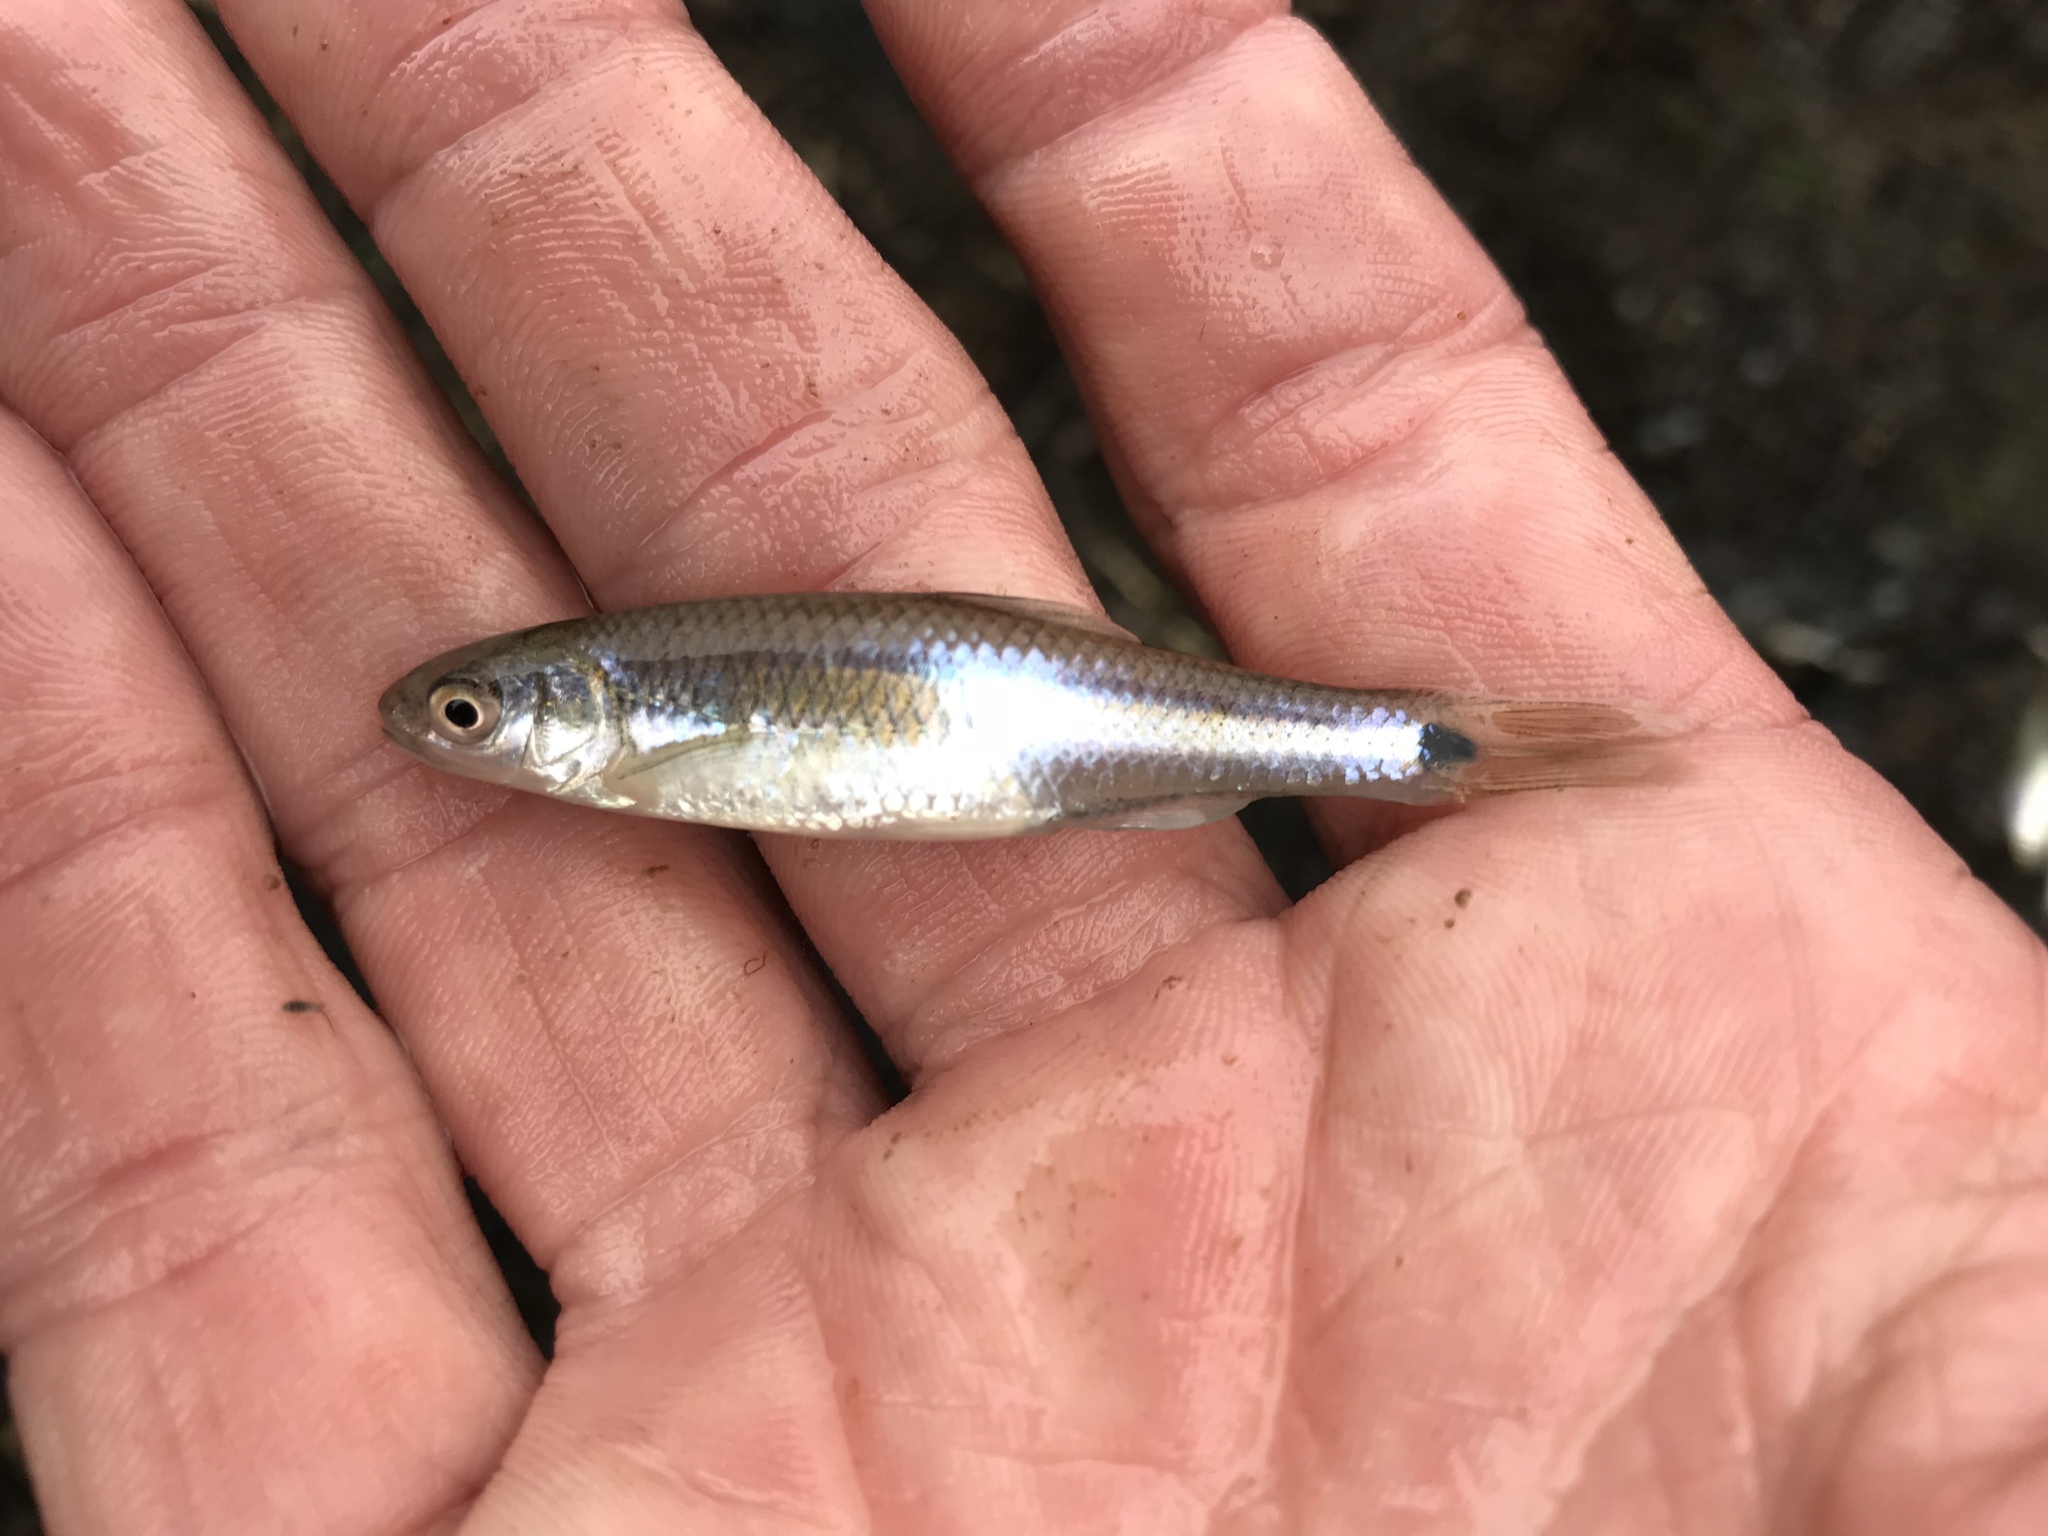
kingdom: Animalia
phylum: Chordata
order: Cypriniformes
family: Cyprinidae
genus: Cyprinella
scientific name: Cyprinella venusta
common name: Blacktail shiner
